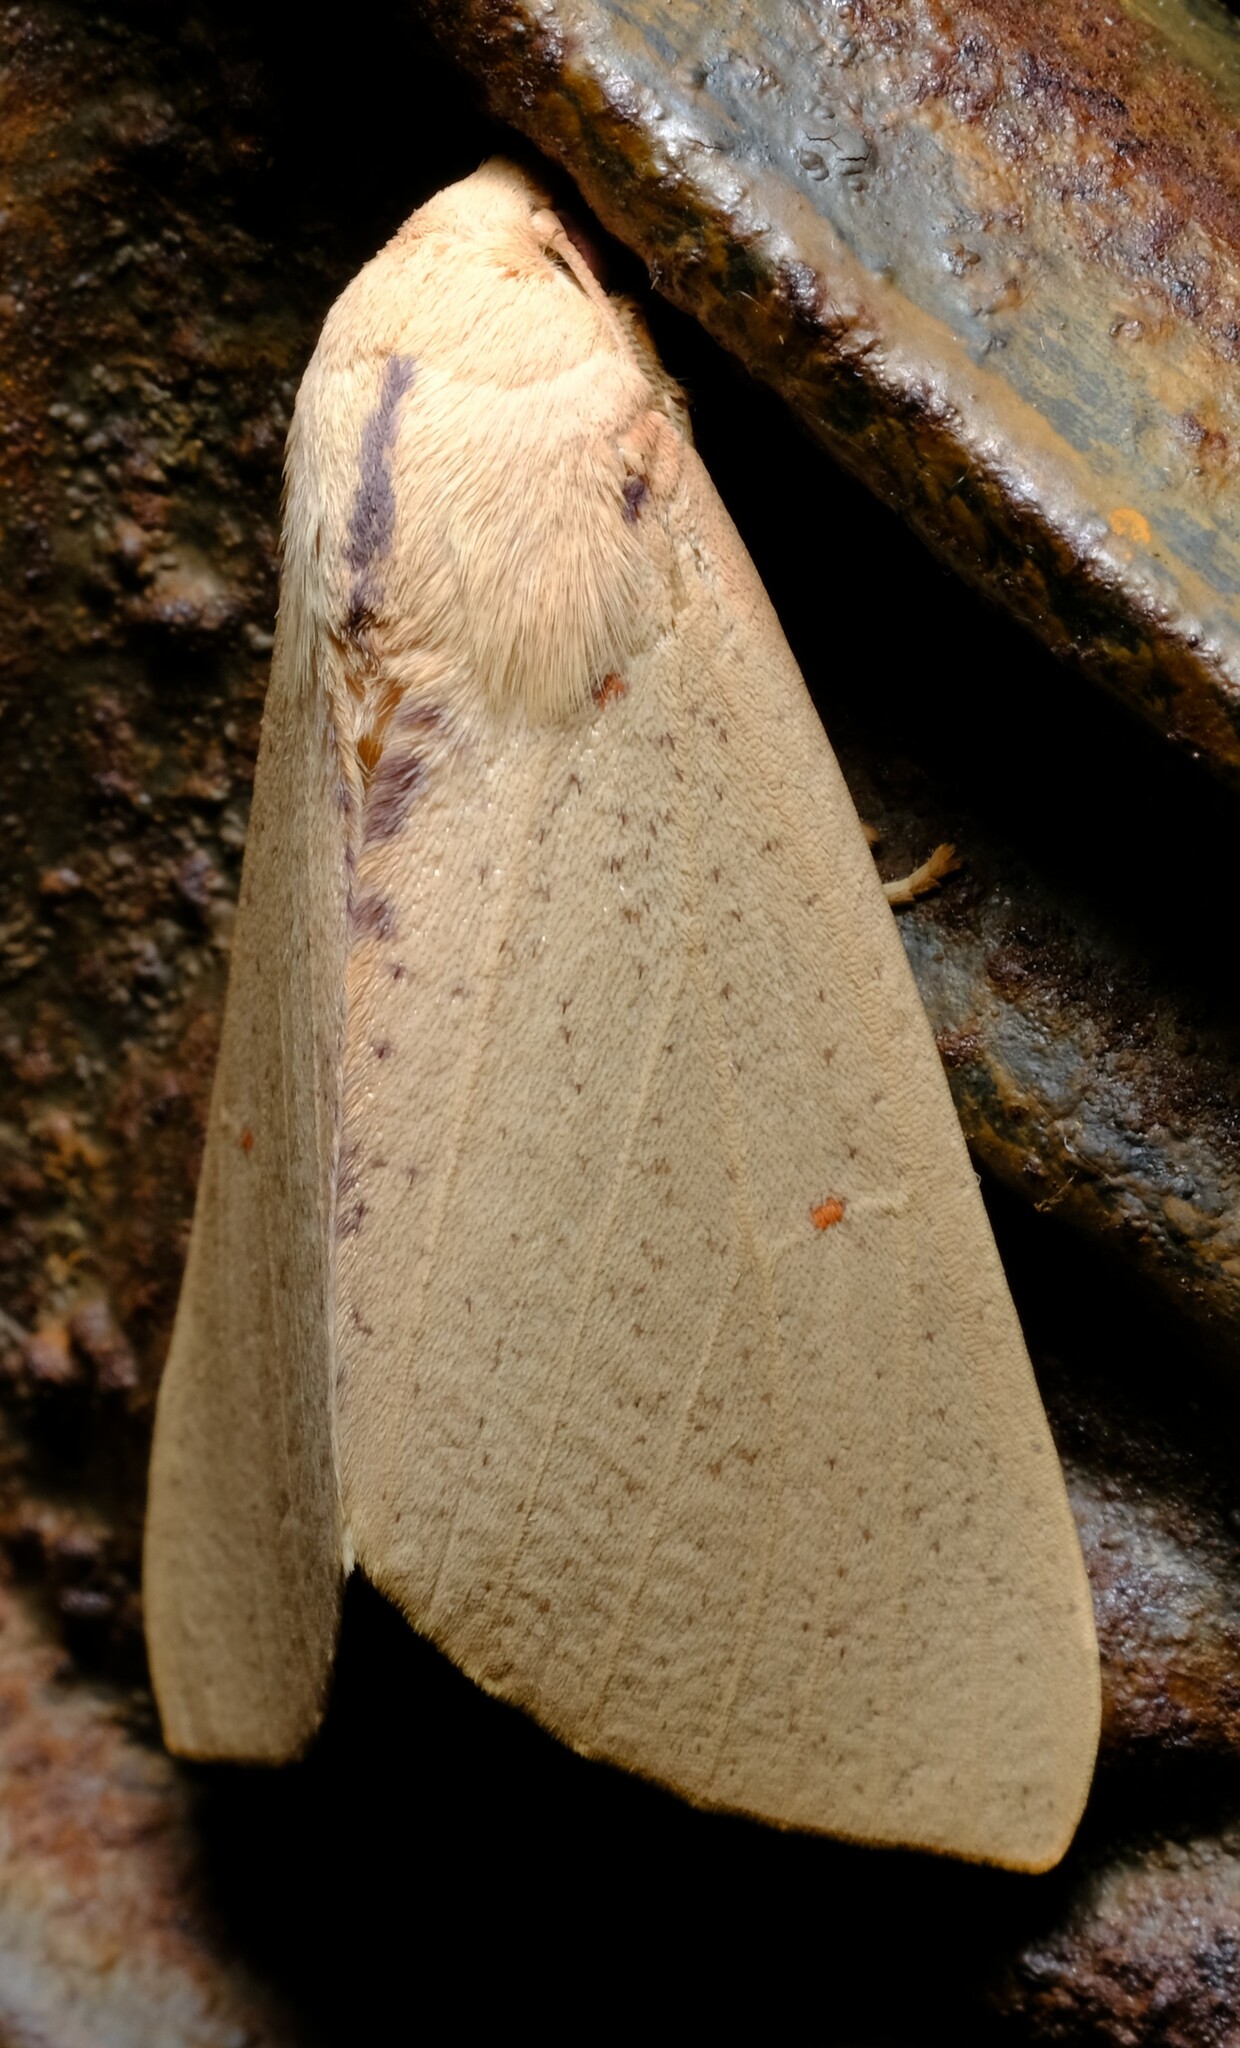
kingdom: Animalia
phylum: Arthropoda
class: Insecta
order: Lepidoptera
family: Geometridae
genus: Plesanemma
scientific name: Plesanemma fucata
